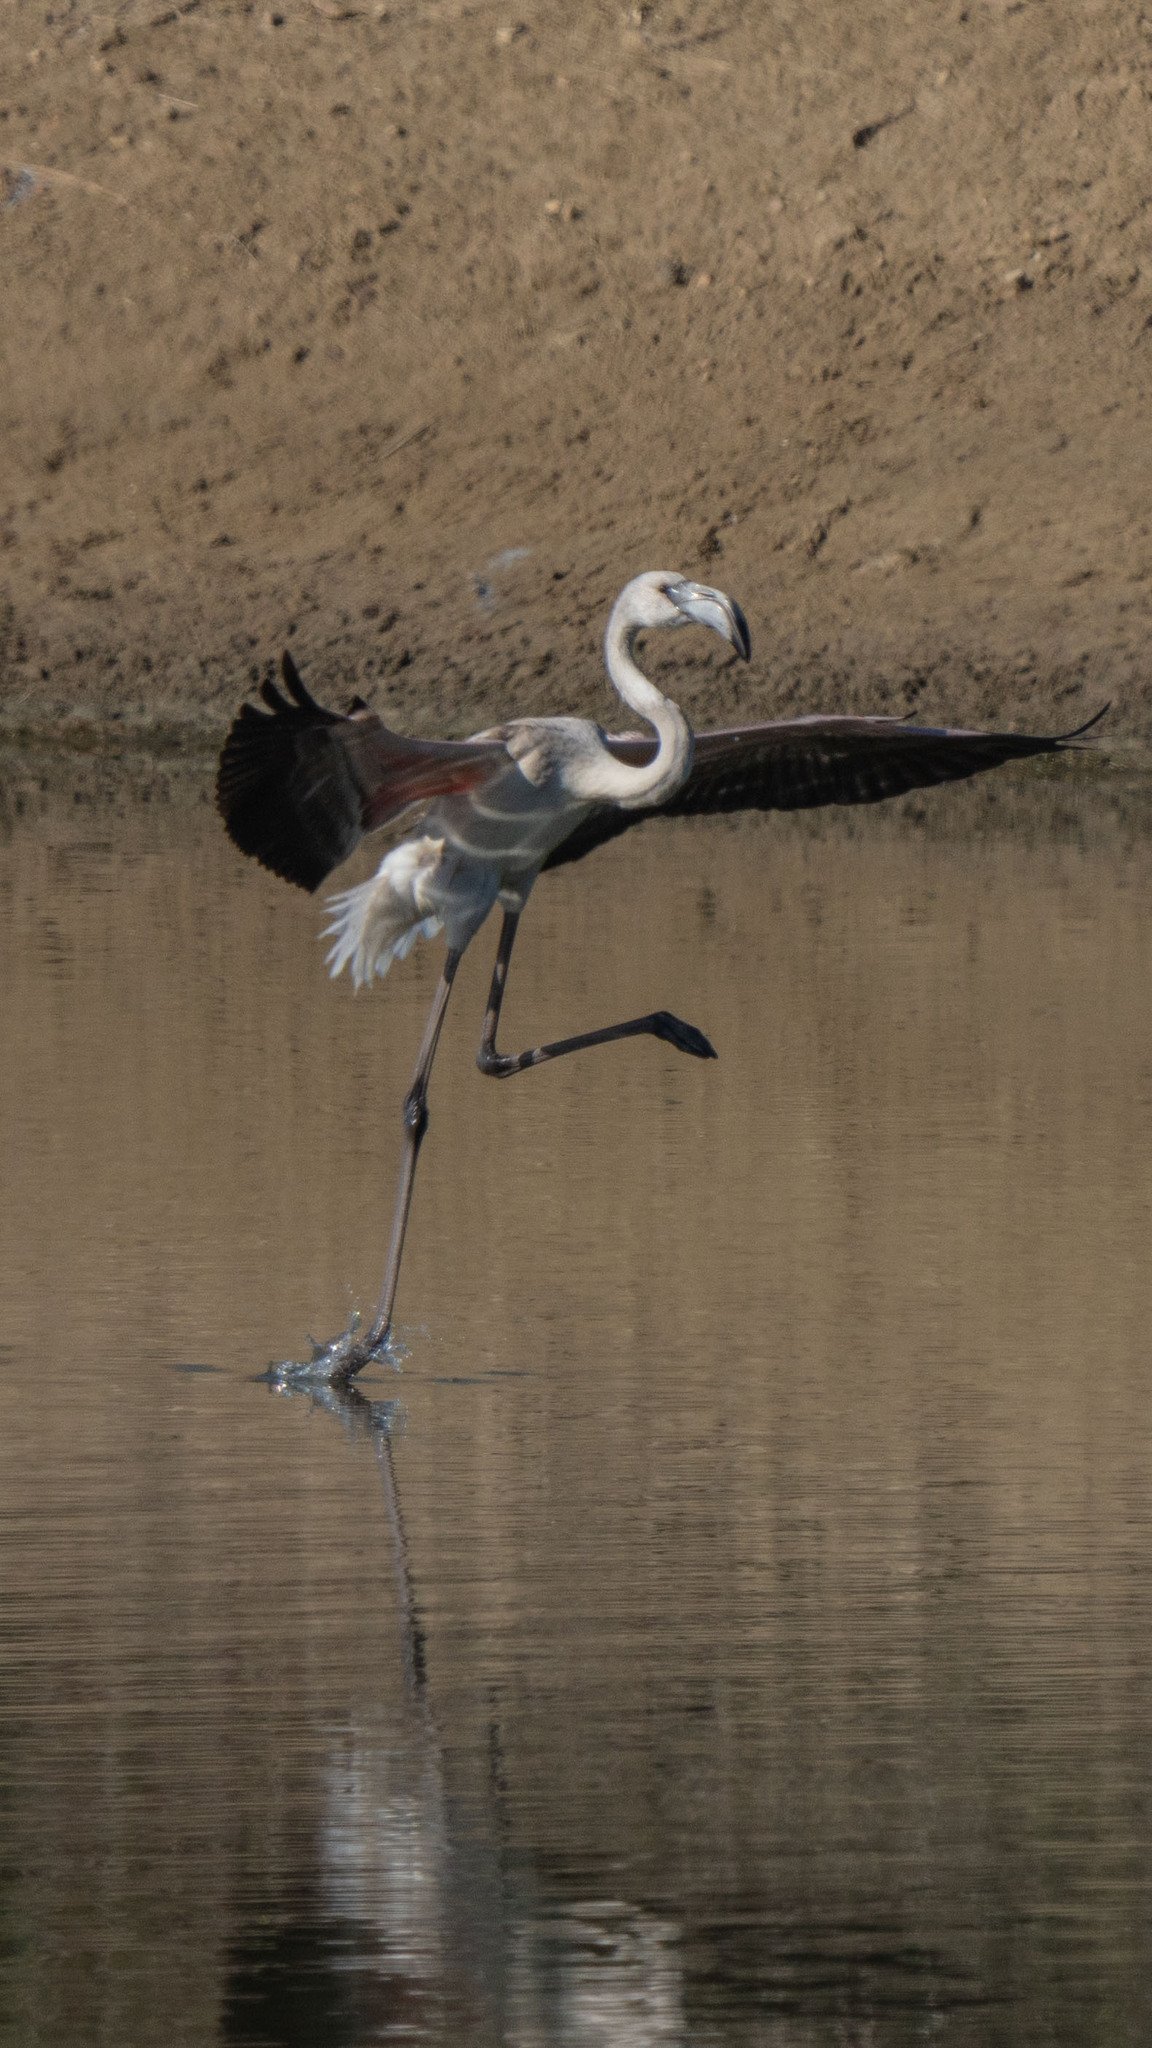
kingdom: Animalia
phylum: Chordata
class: Aves
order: Phoenicopteriformes
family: Phoenicopteridae
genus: Phoenicopterus
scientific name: Phoenicopterus roseus
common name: Greater flamingo
